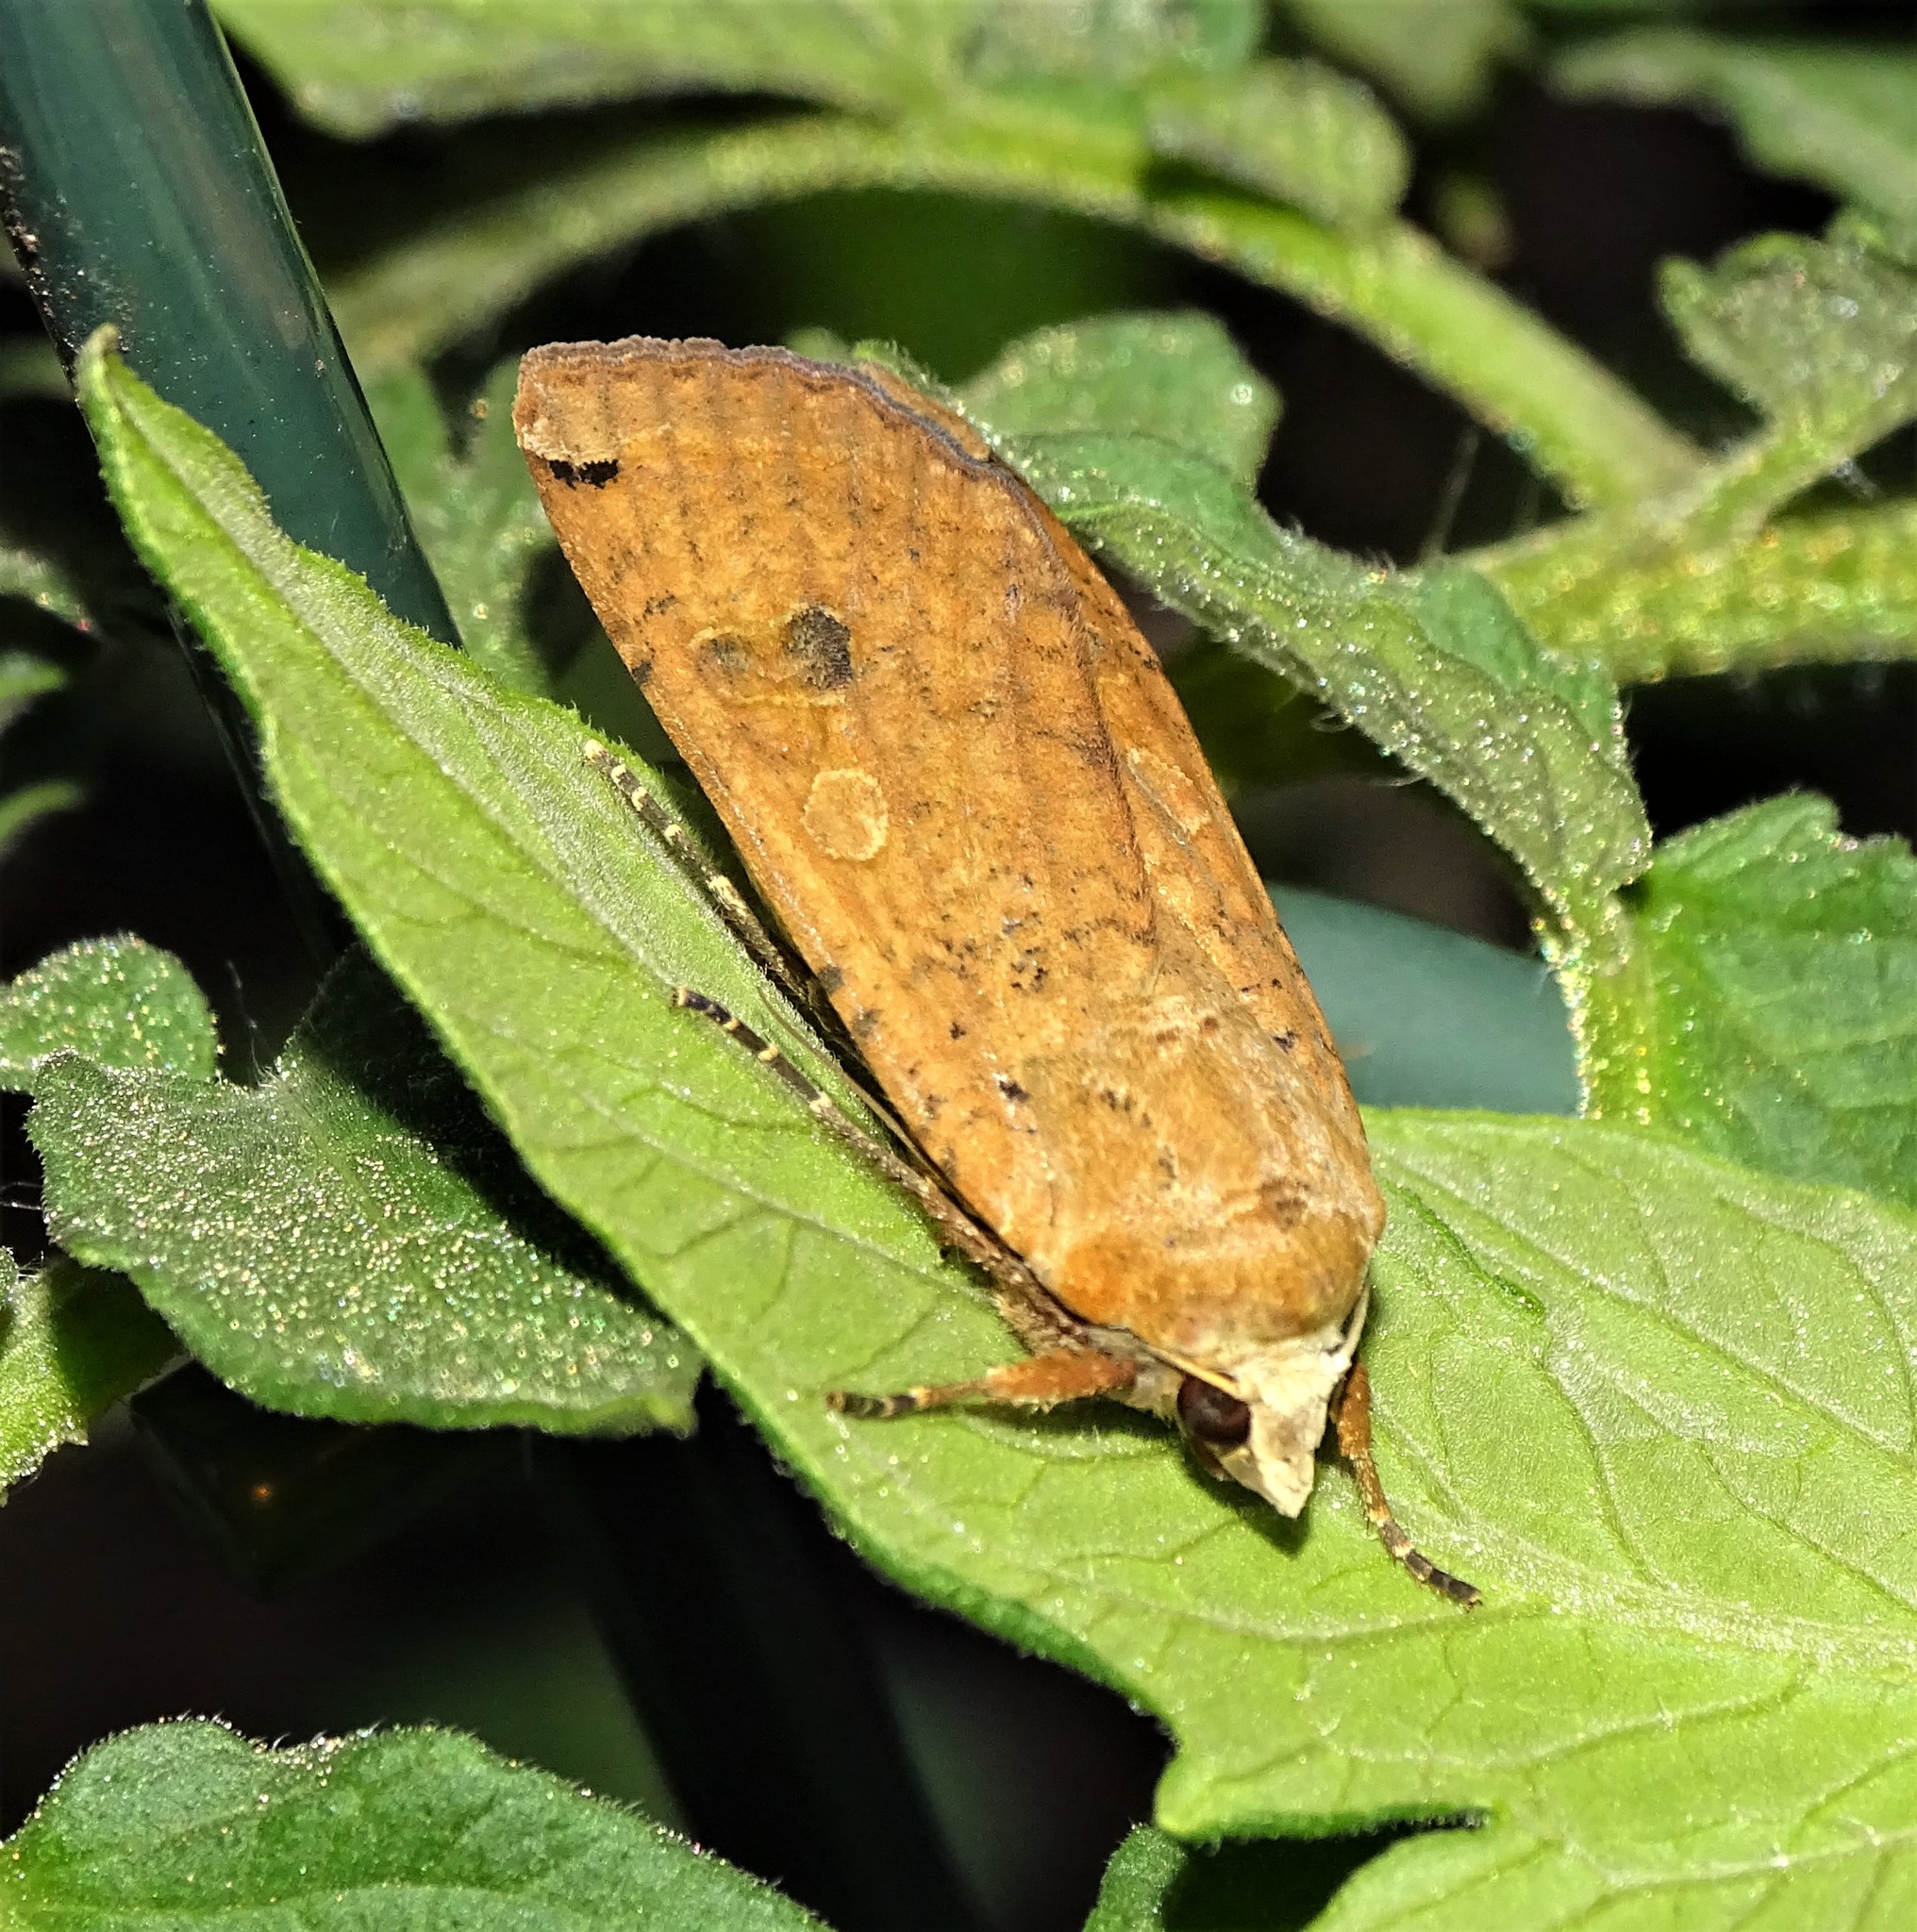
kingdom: Animalia
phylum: Arthropoda
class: Insecta
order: Lepidoptera
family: Noctuidae
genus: Noctua
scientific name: Noctua pronuba
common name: Large yellow underwing
